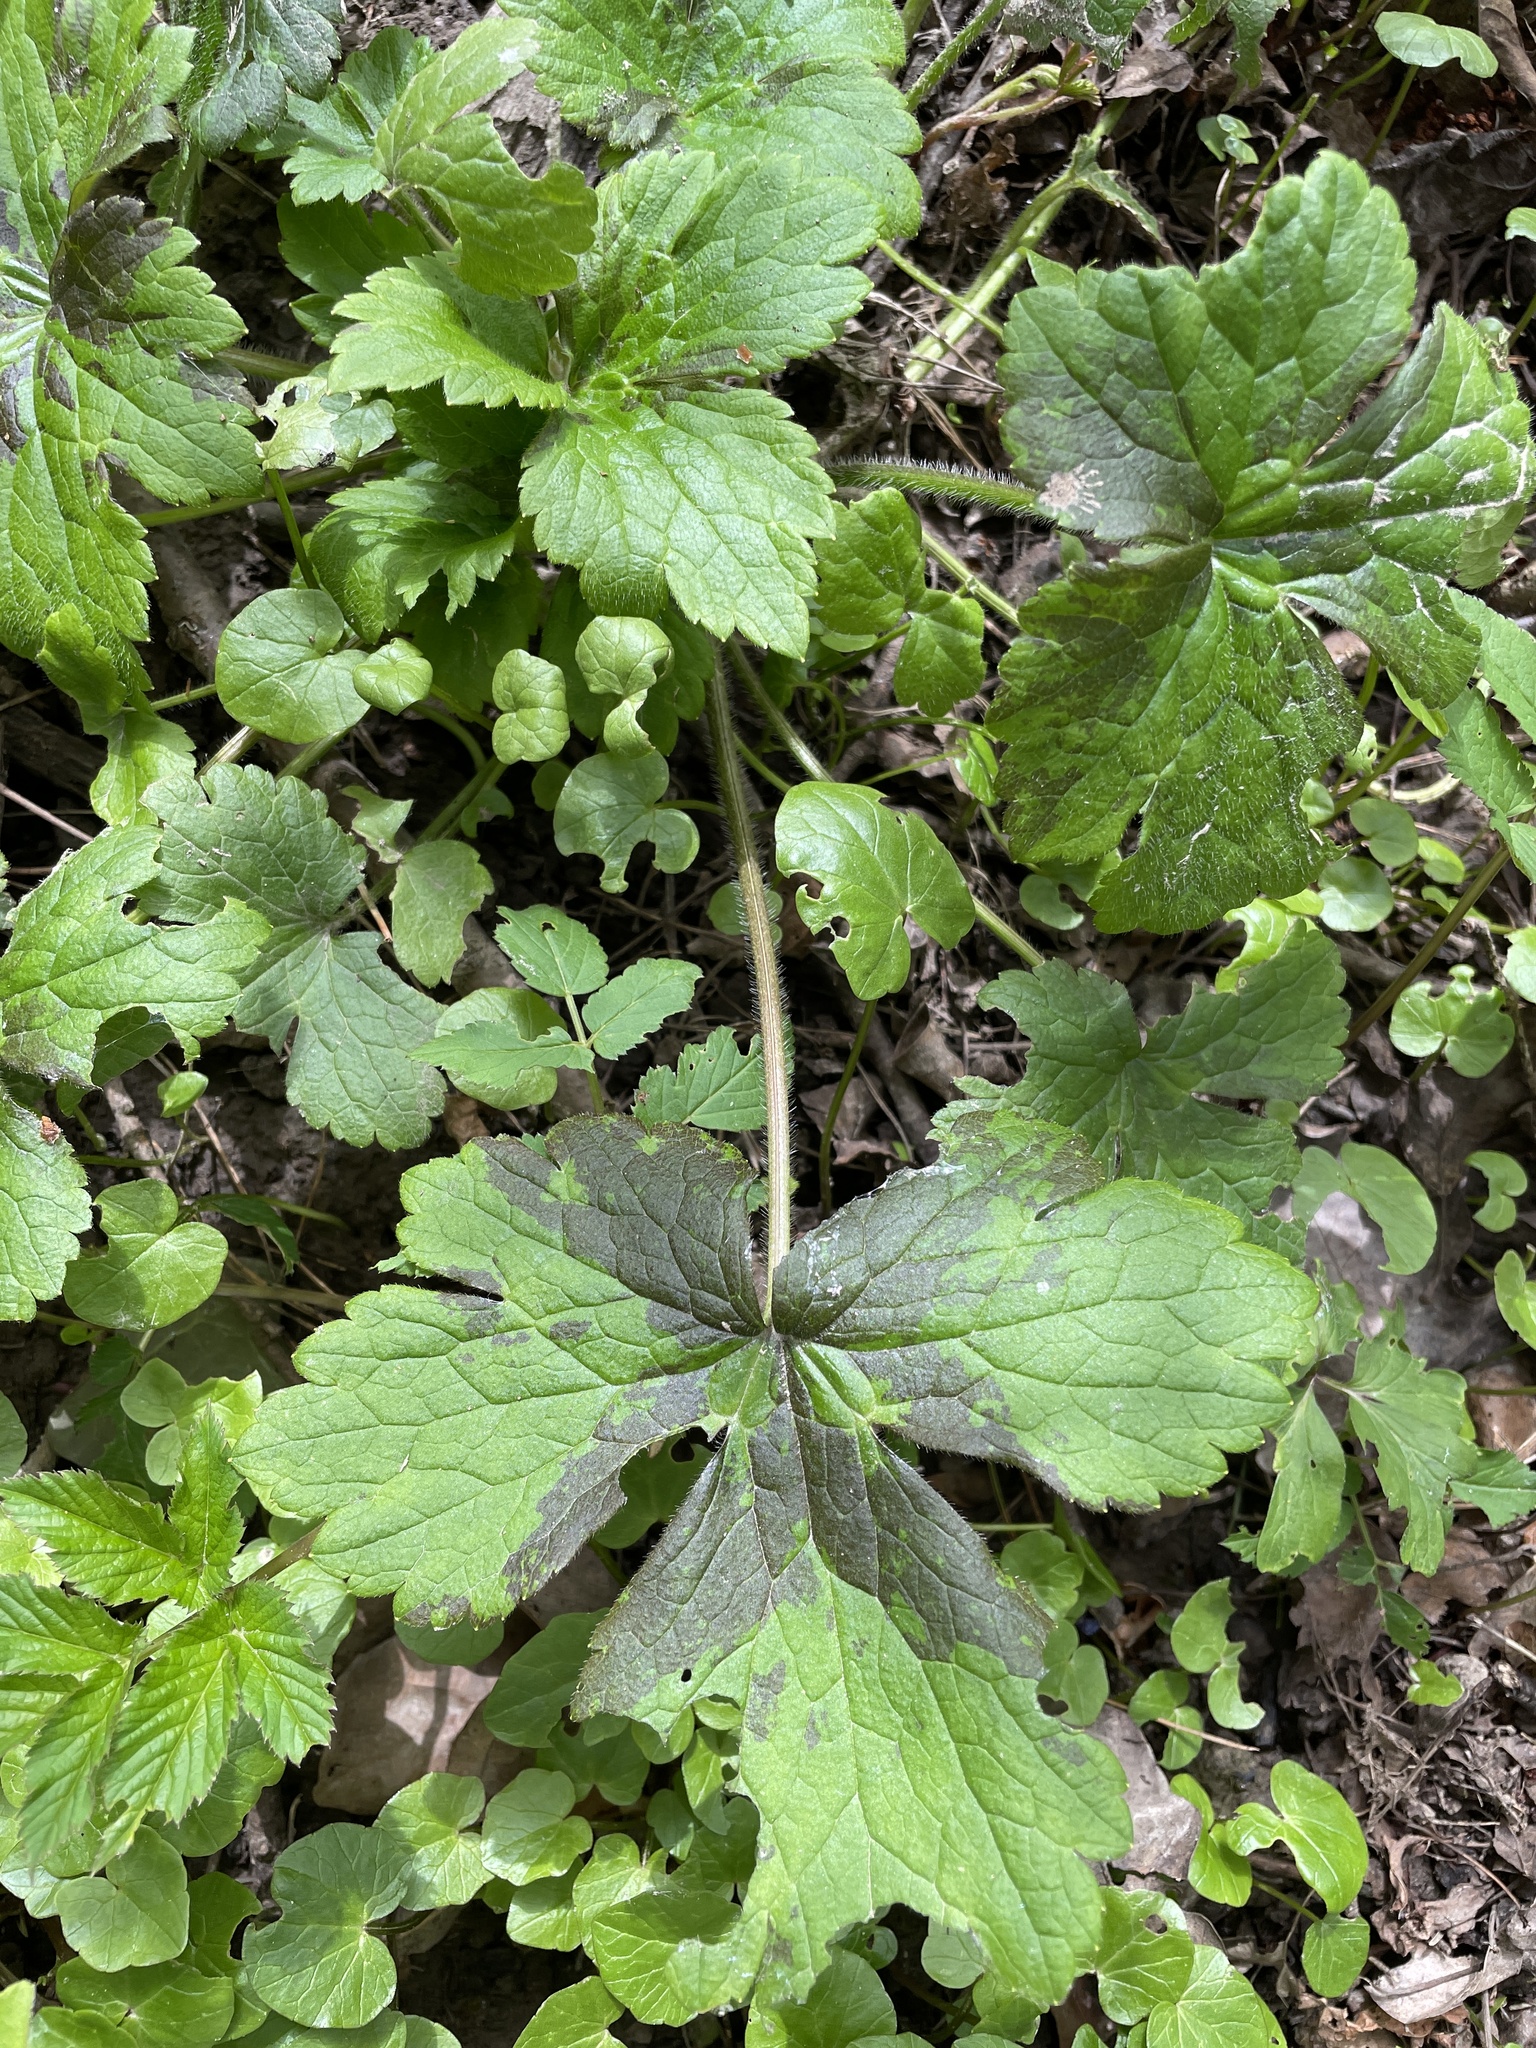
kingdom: Plantae
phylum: Tracheophyta
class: Magnoliopsida
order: Ranunculales
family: Ranunculaceae
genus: Ranunculus
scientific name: Ranunculus lanuginosus
